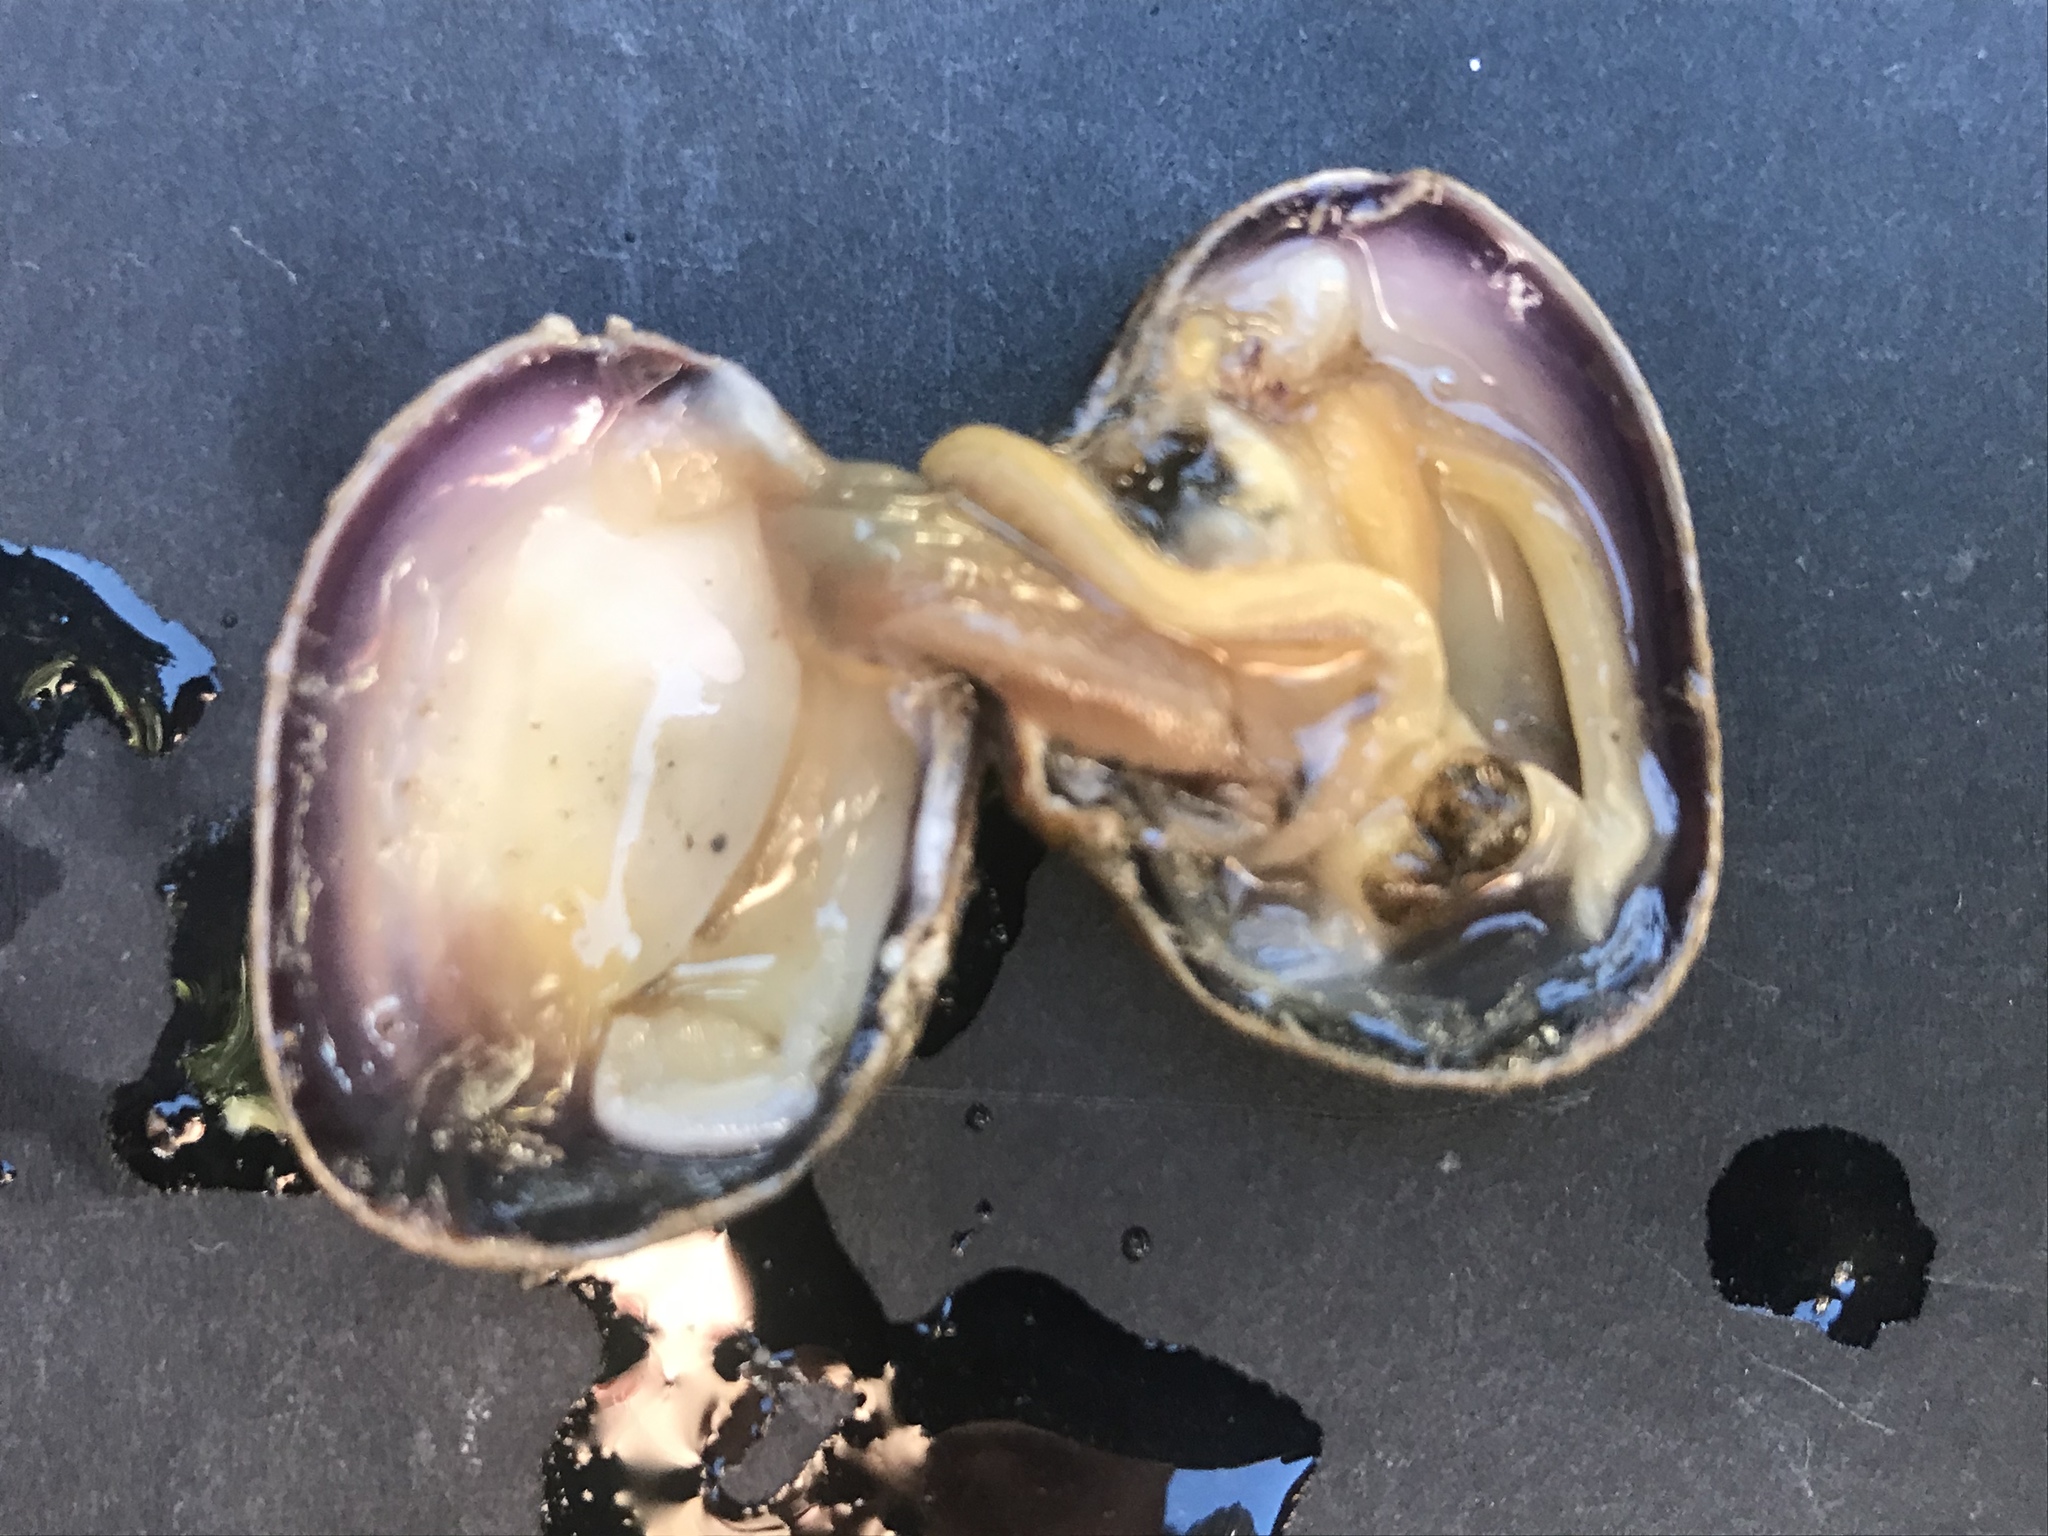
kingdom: Animalia
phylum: Mollusca
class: Bivalvia
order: Venerida
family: Veneridae
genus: Ruditapes
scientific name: Ruditapes philippinarum
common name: Manila clam
